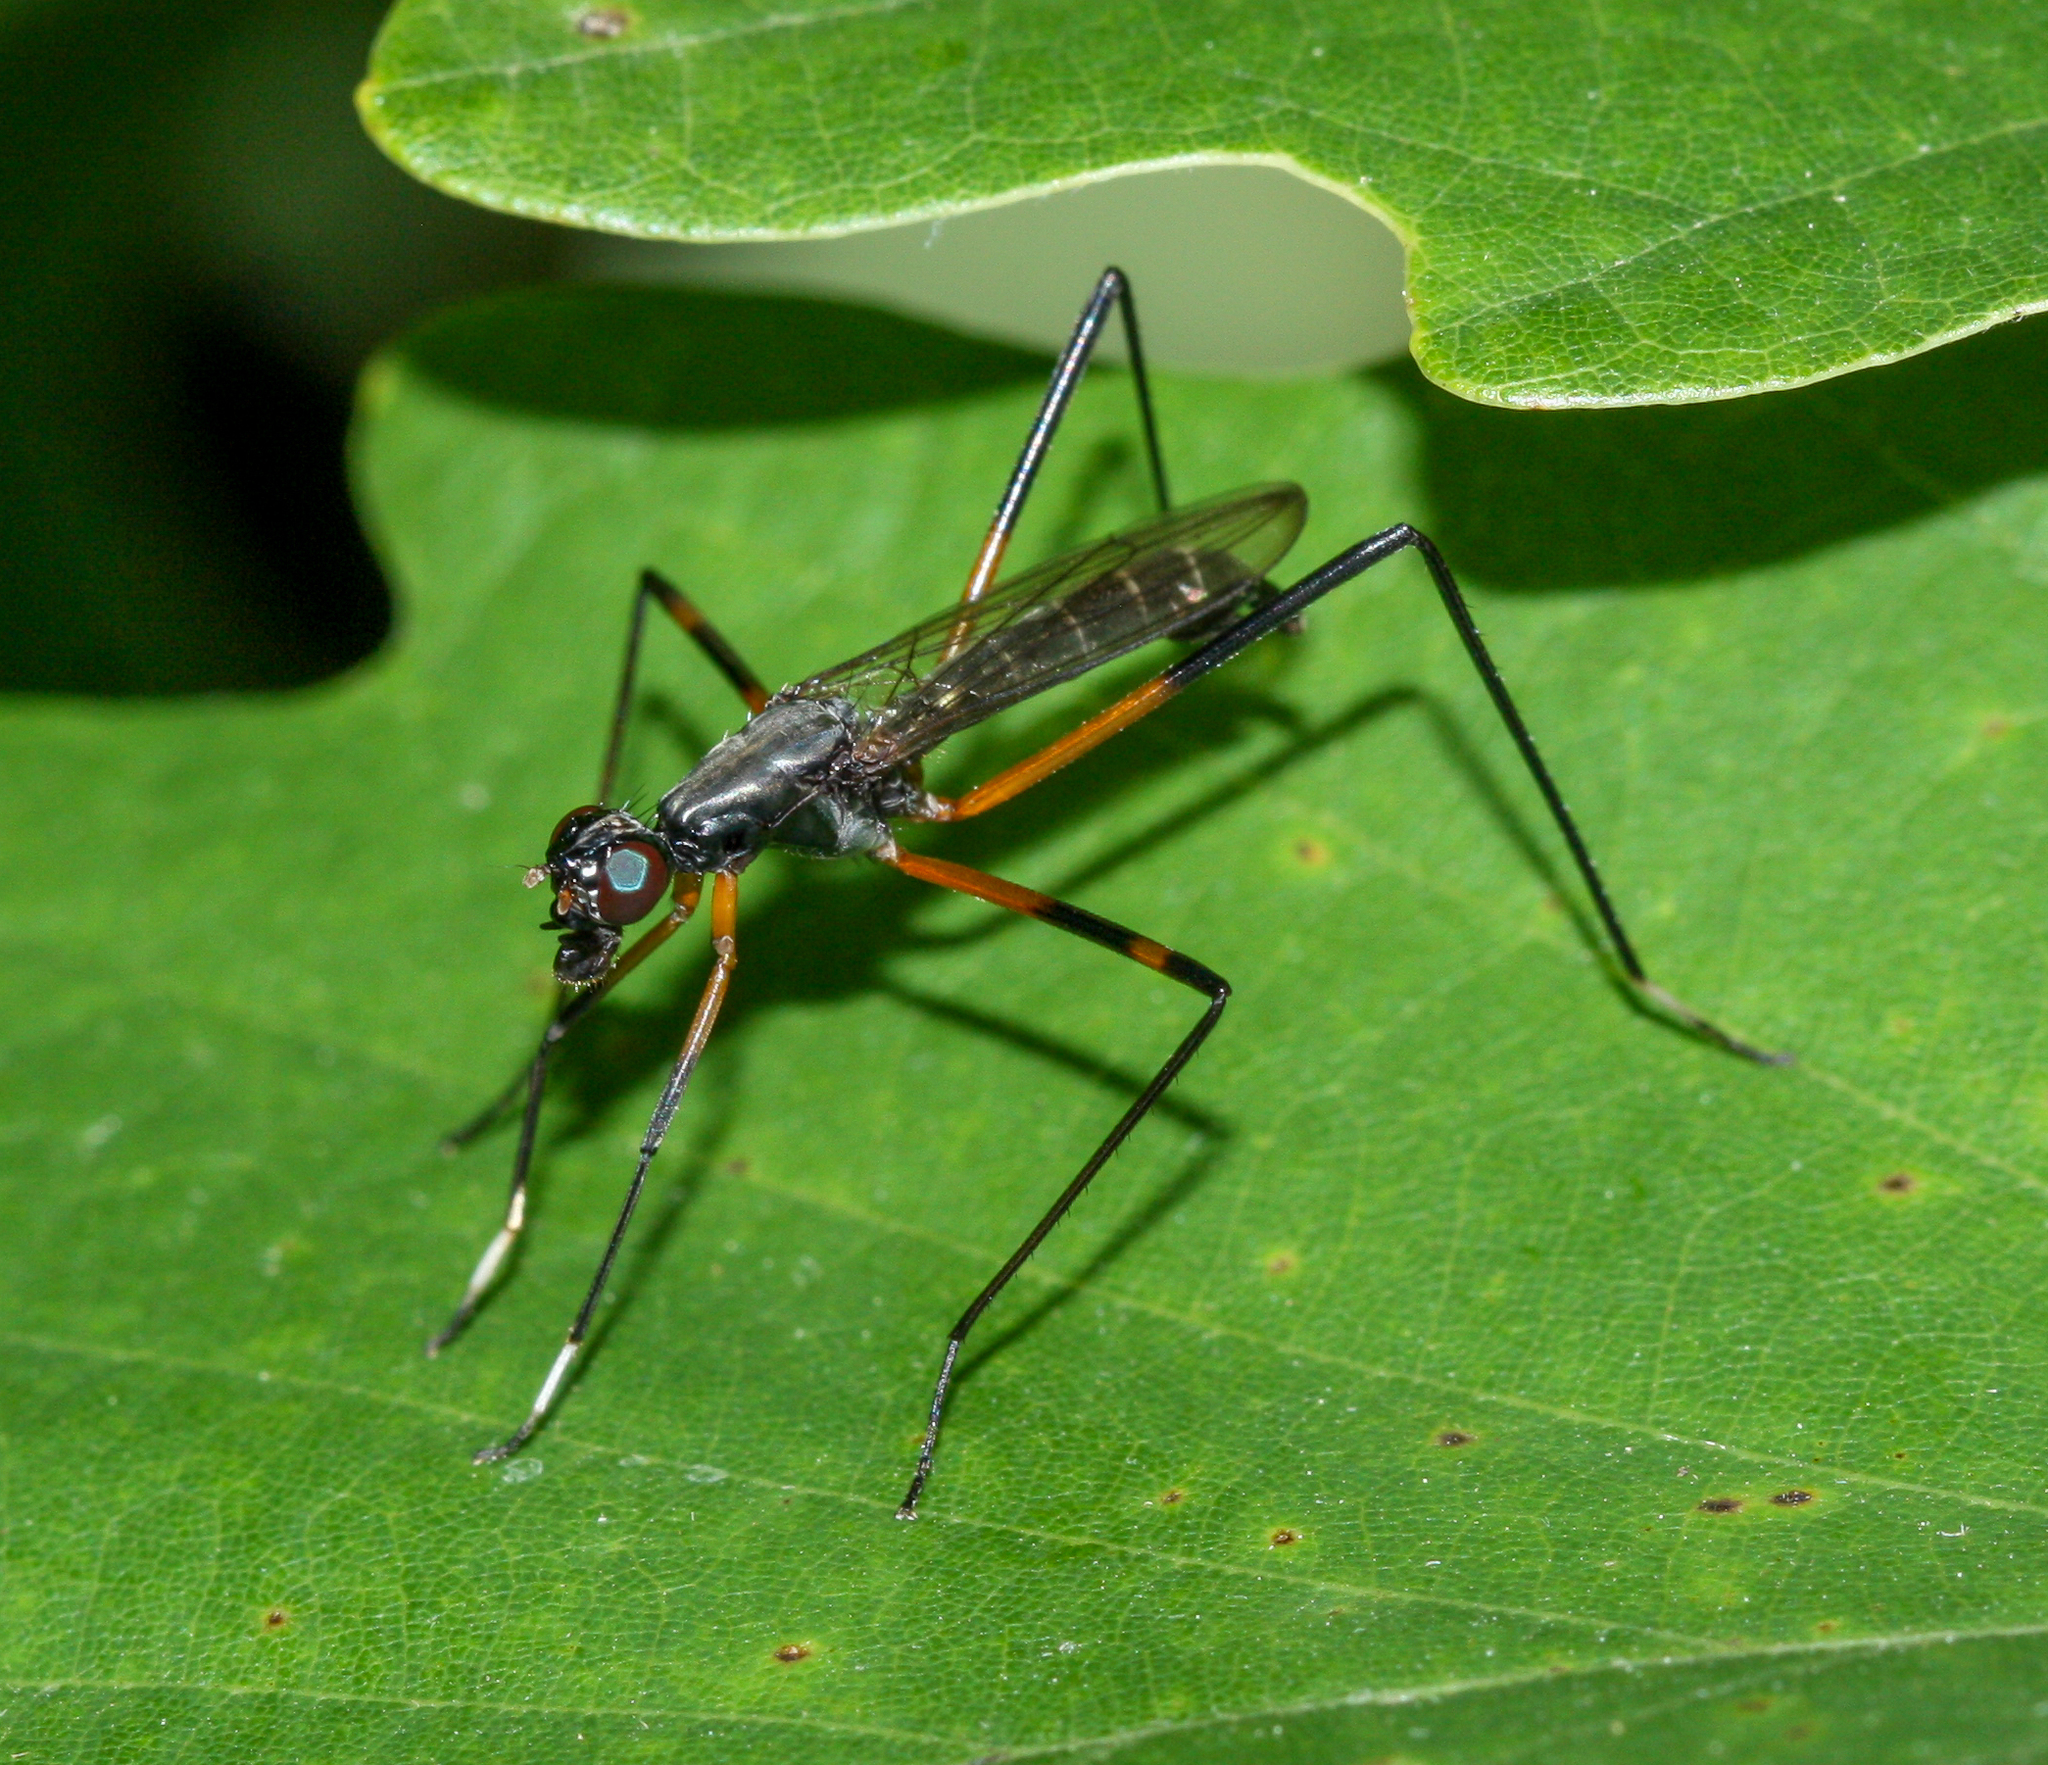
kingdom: Animalia
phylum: Arthropoda
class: Insecta
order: Diptera
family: Micropezidae
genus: Calobatina
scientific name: Calobatina geometra
